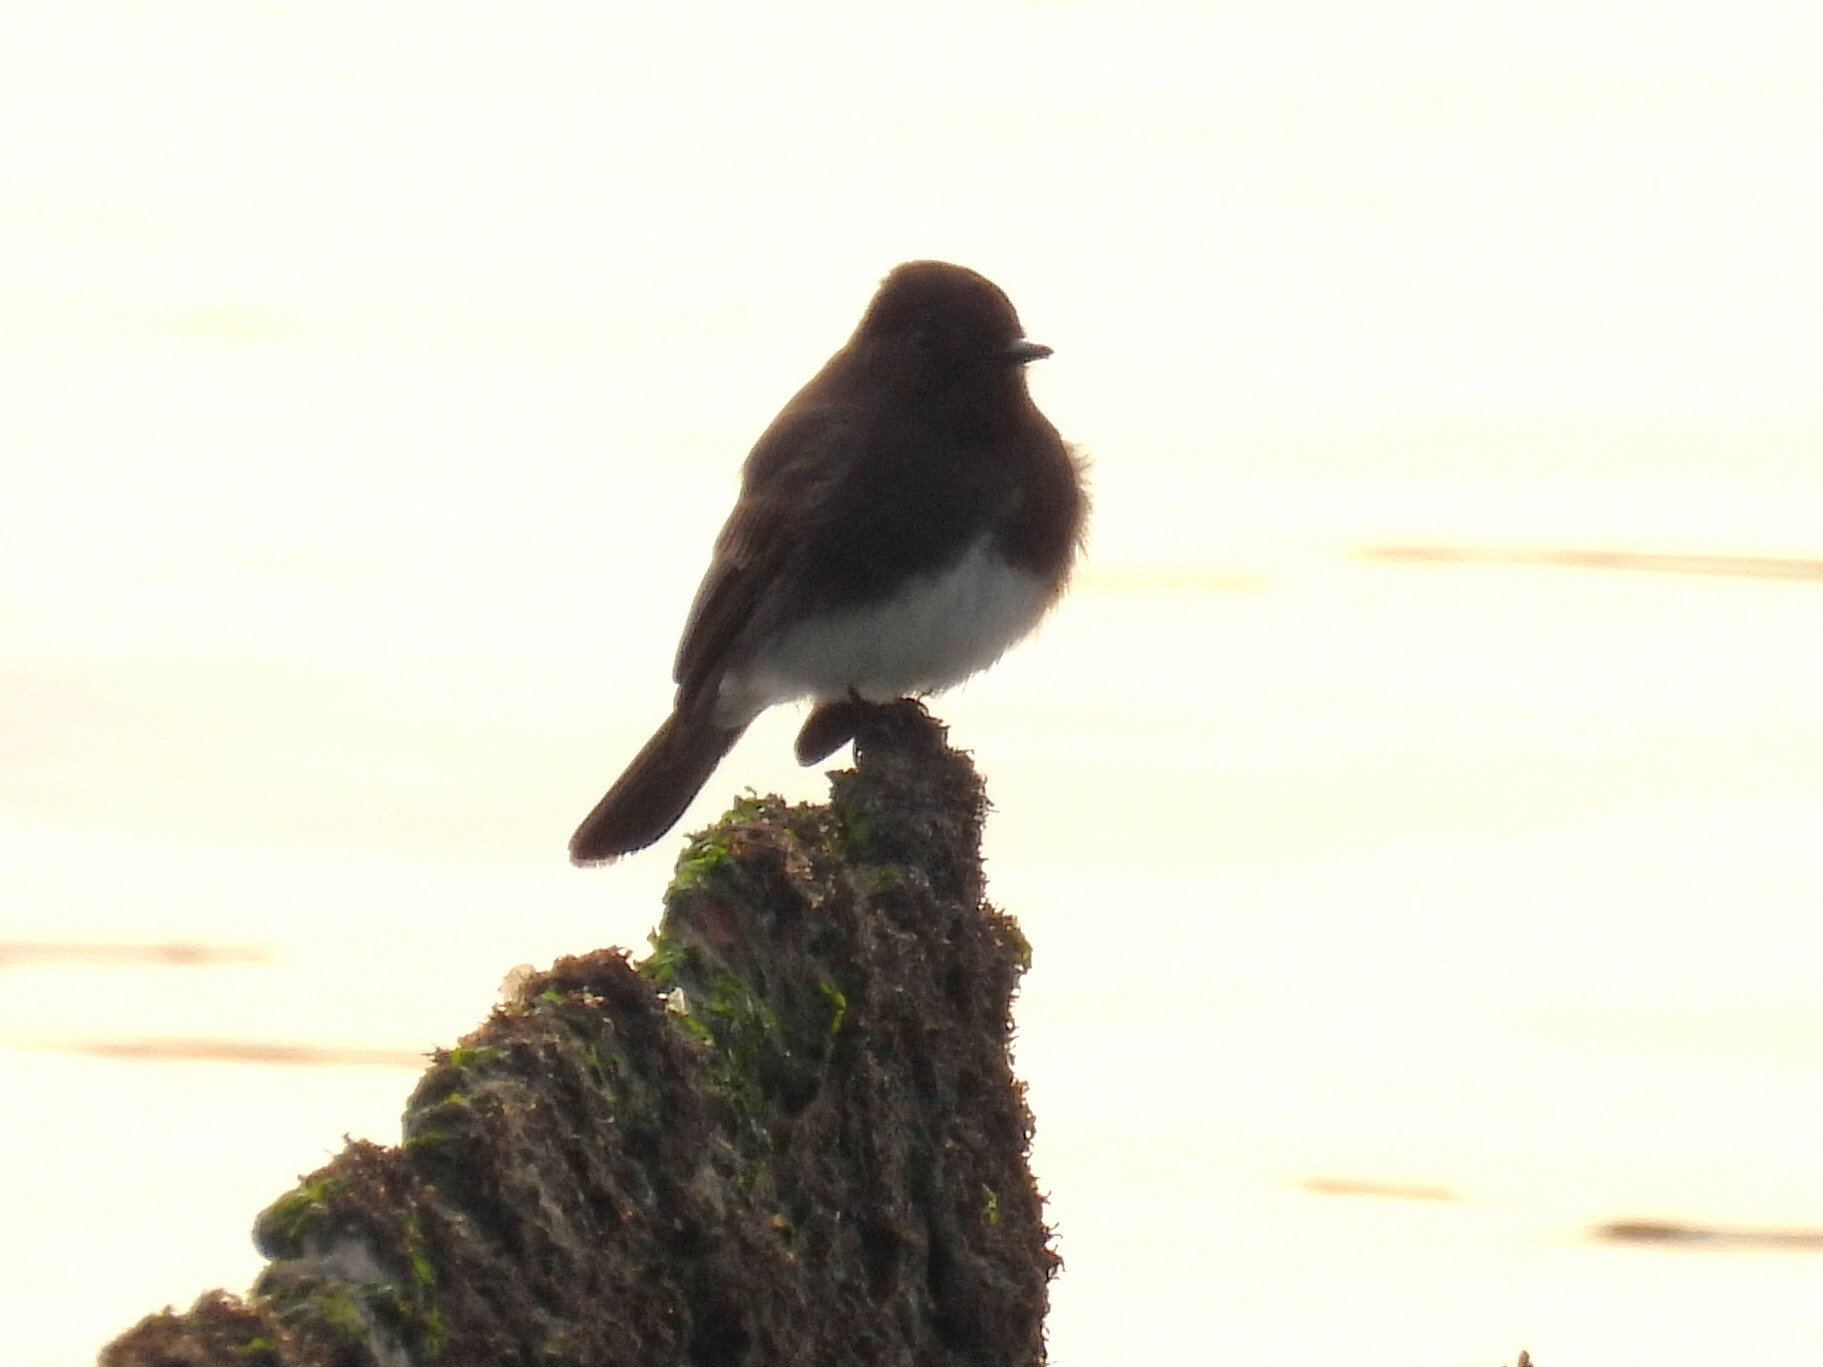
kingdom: Animalia
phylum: Chordata
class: Aves
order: Passeriformes
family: Tyrannidae
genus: Sayornis
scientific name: Sayornis nigricans
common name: Black phoebe
